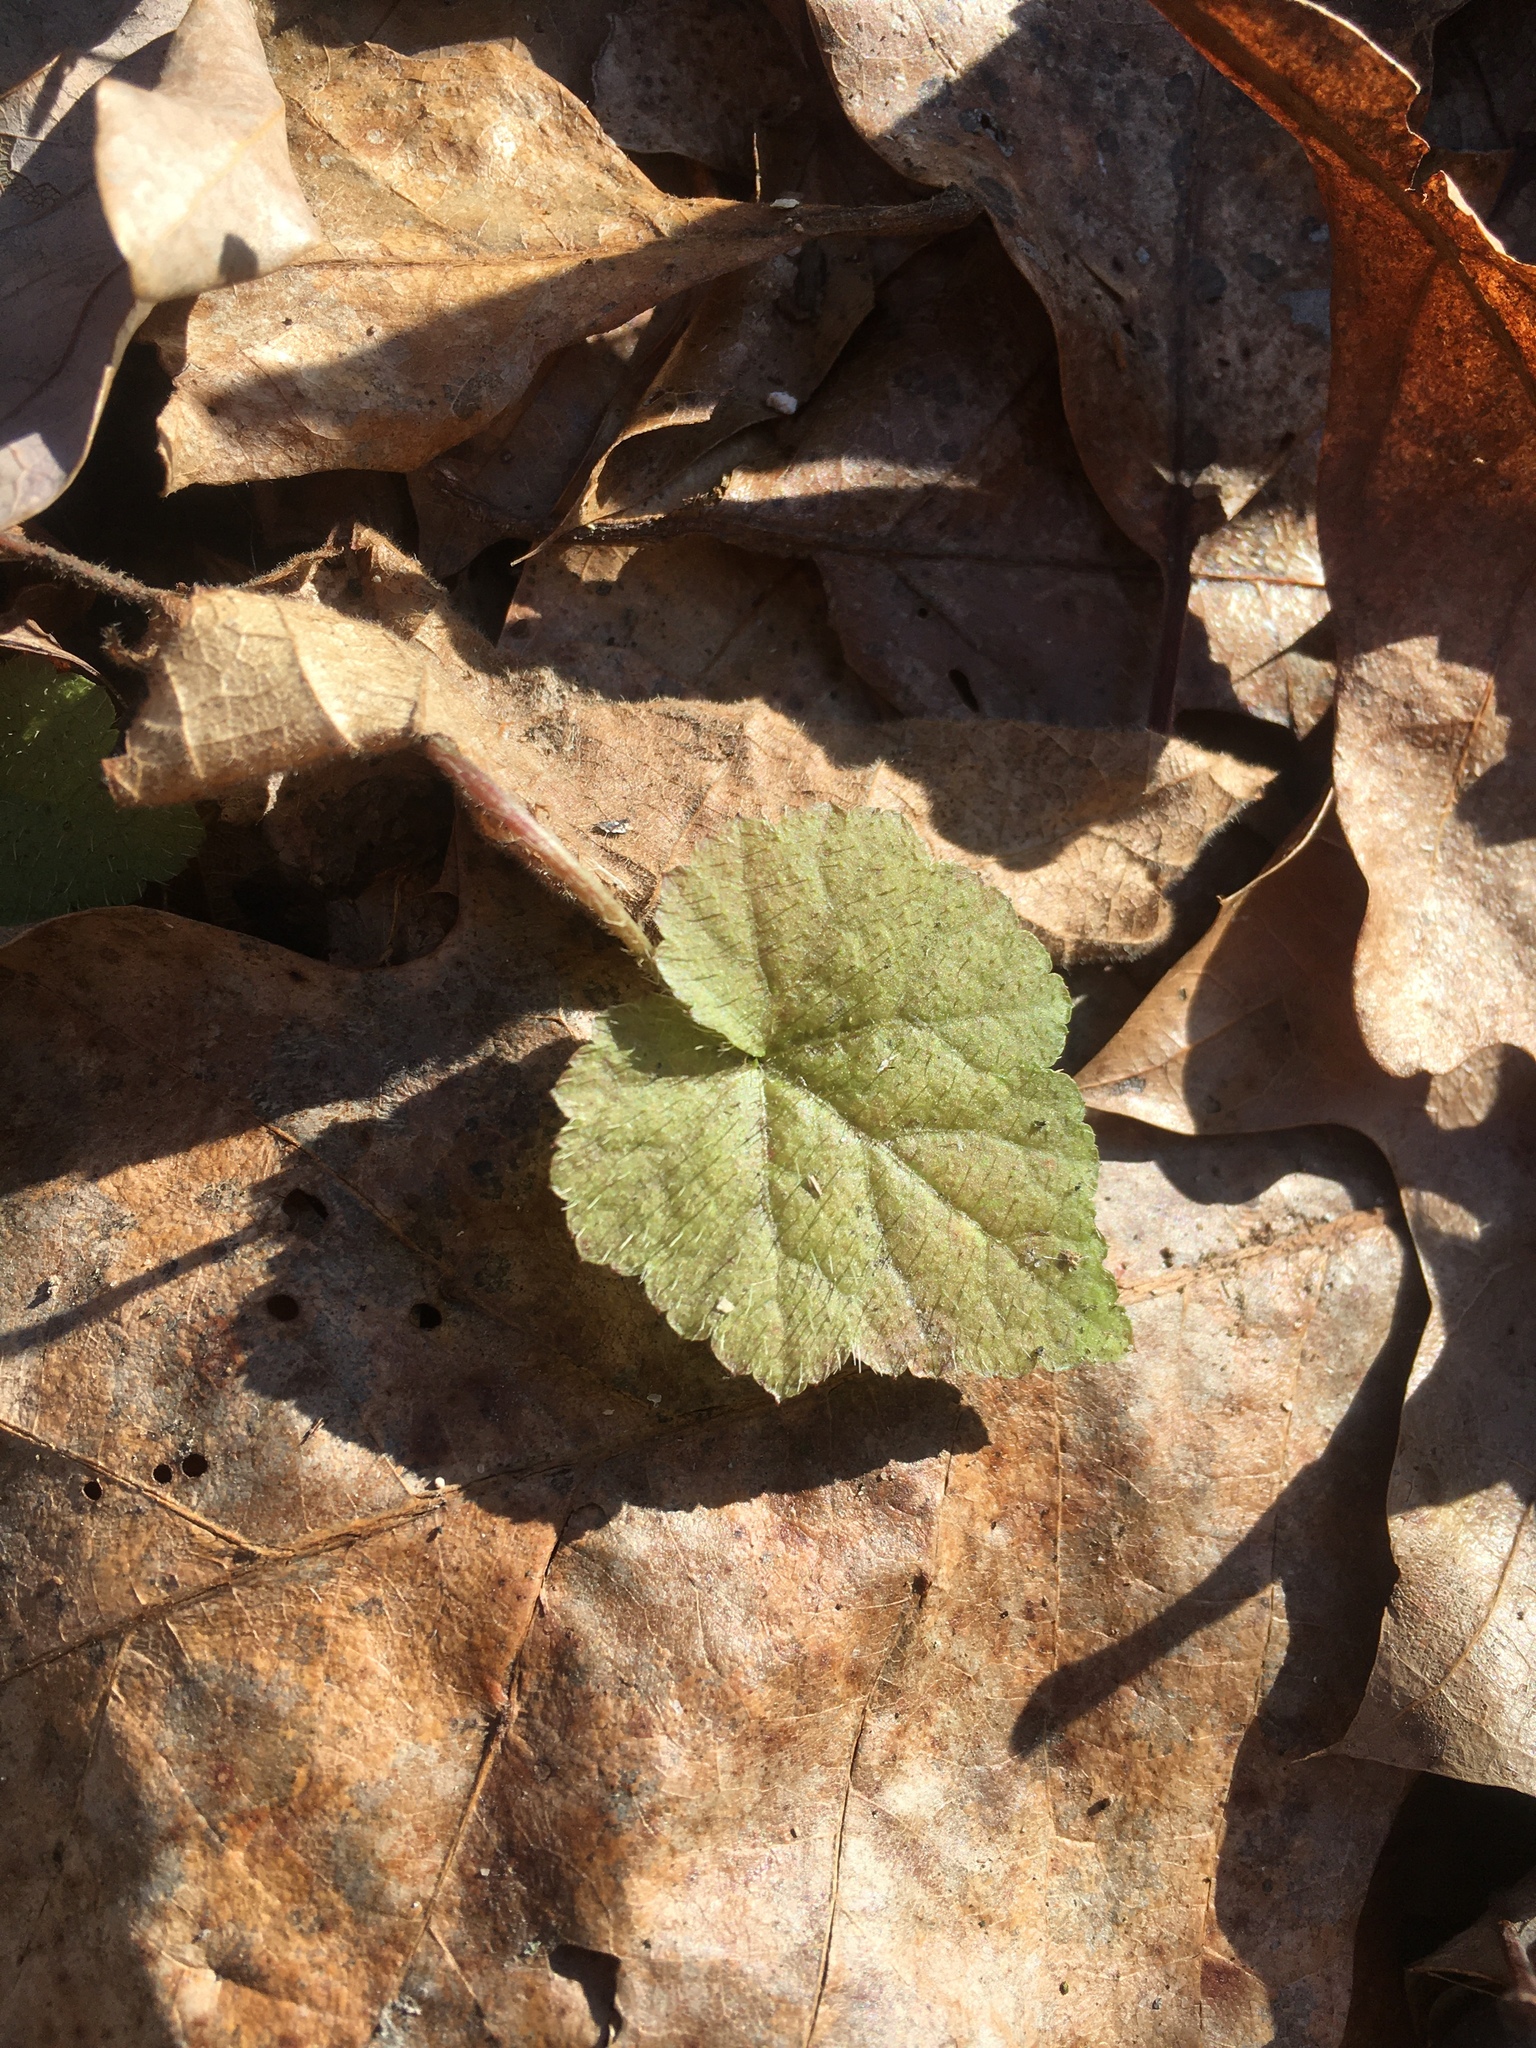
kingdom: Plantae
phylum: Tracheophyta
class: Magnoliopsida
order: Saxifragales
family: Saxifragaceae
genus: Mitella
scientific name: Mitella diphylla
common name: Coolwort
